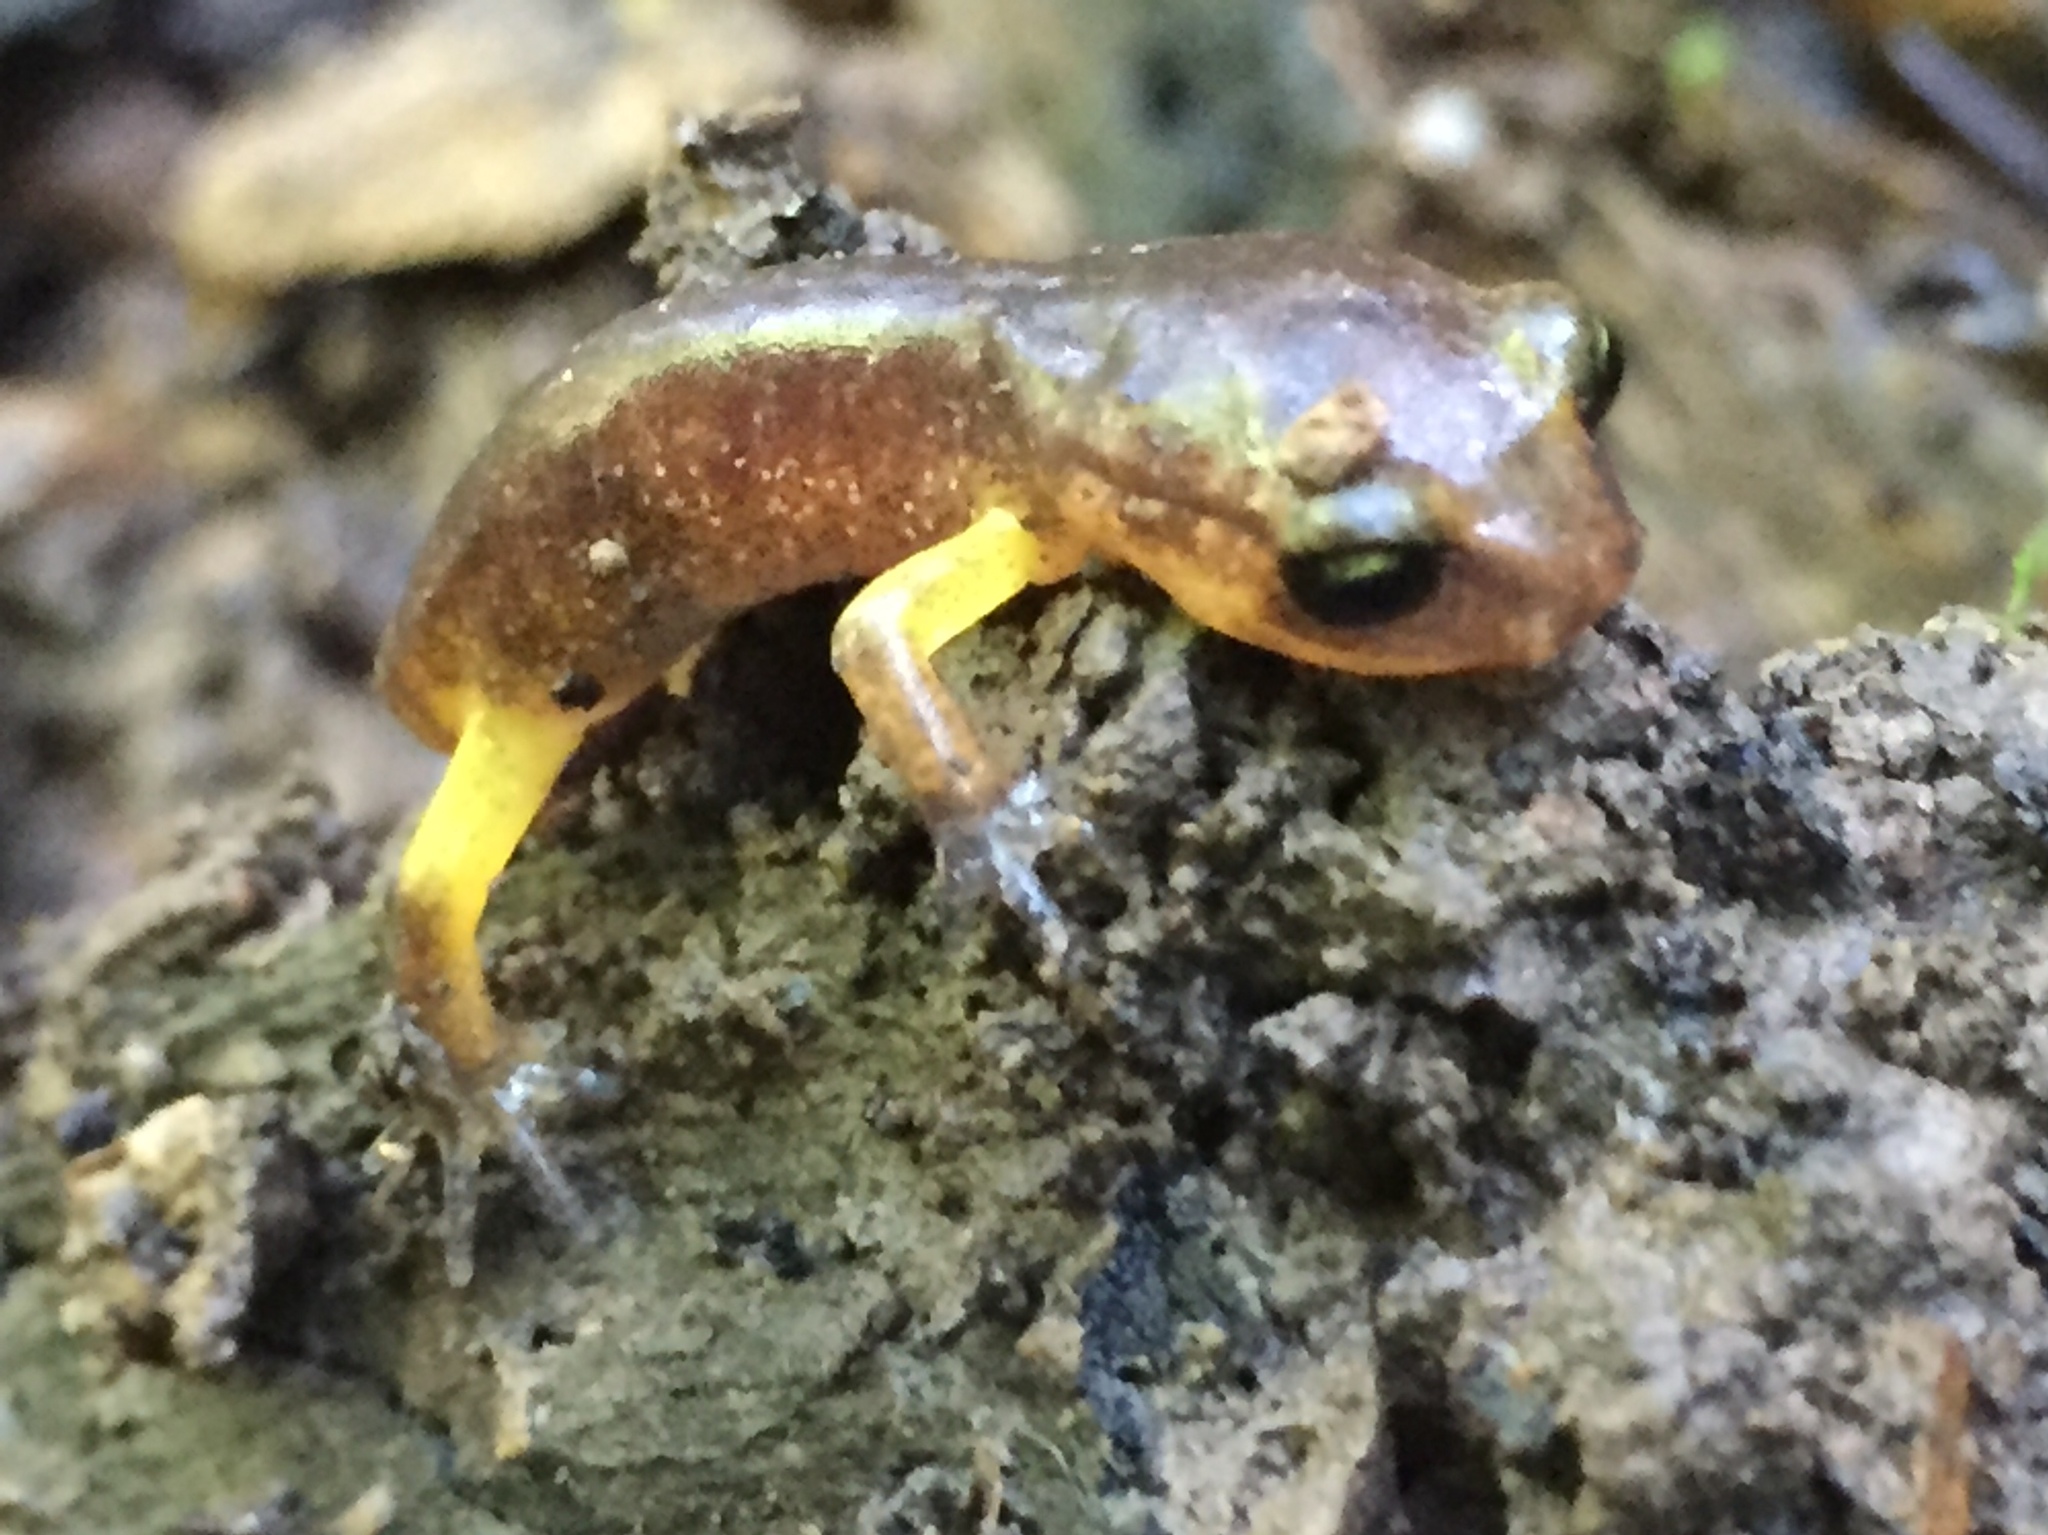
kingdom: Animalia
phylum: Chordata
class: Amphibia
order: Caudata
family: Plethodontidae
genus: Ensatina
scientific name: Ensatina eschscholtzii
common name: Ensatina
